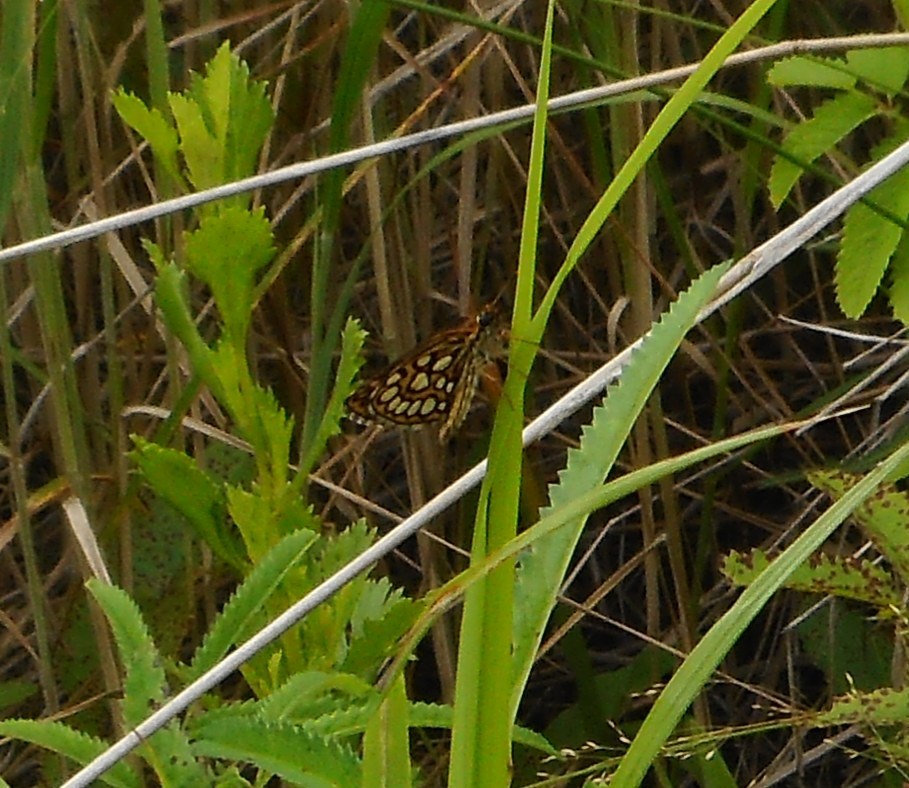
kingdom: Animalia
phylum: Arthropoda
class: Insecta
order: Lepidoptera
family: Hesperiidae
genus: Heteropterus
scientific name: Heteropterus morpheus
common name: Large chequered skipper
